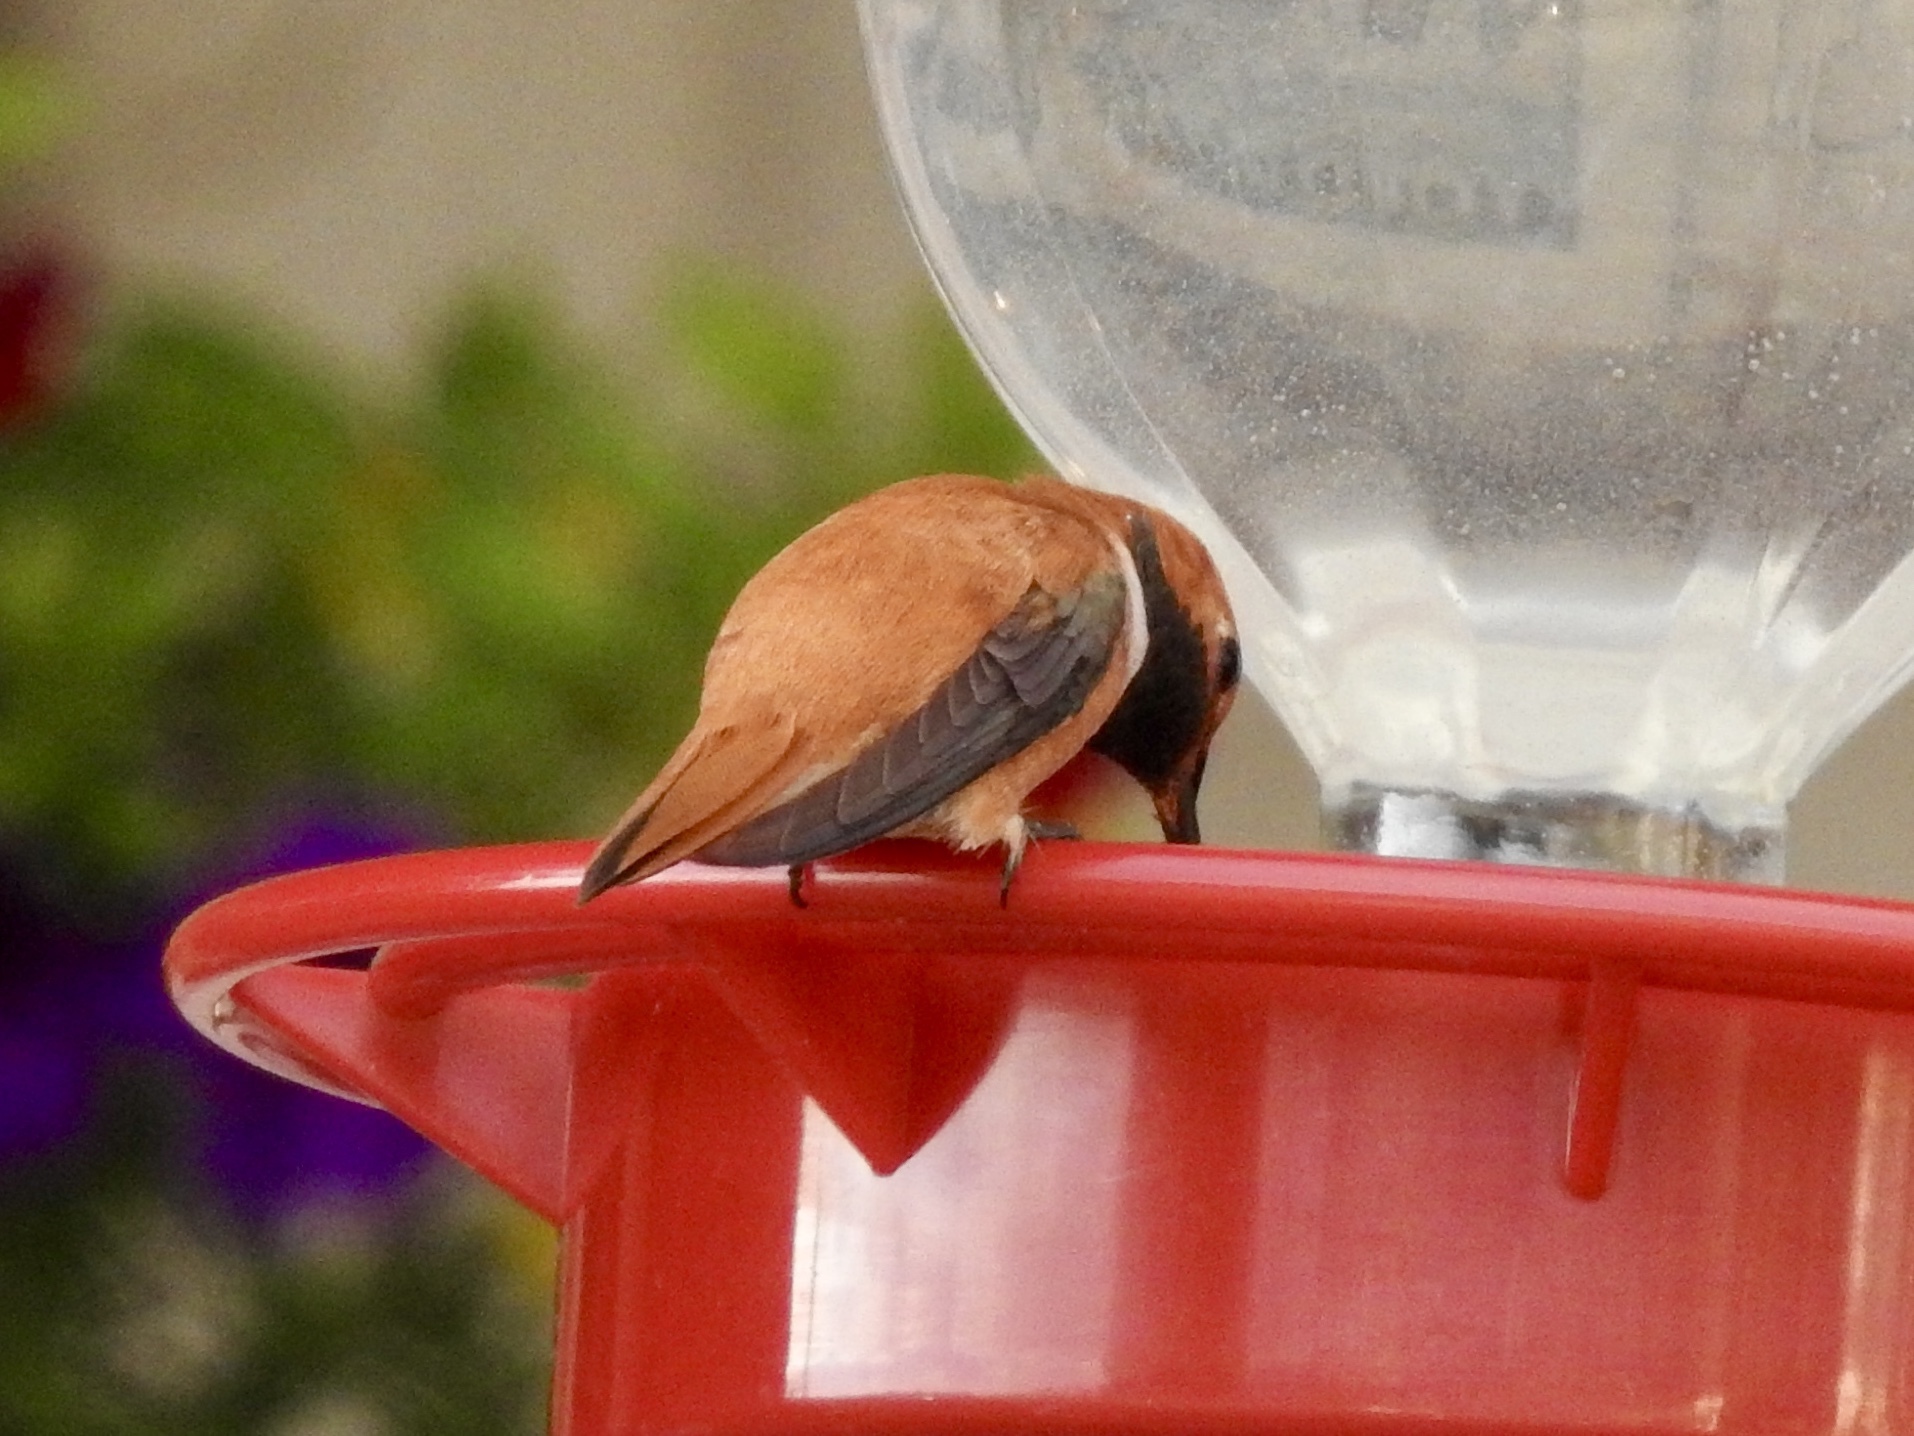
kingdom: Animalia
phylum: Chordata
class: Aves
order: Apodiformes
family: Trochilidae
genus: Selasphorus
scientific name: Selasphorus rufus
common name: Rufous hummingbird
